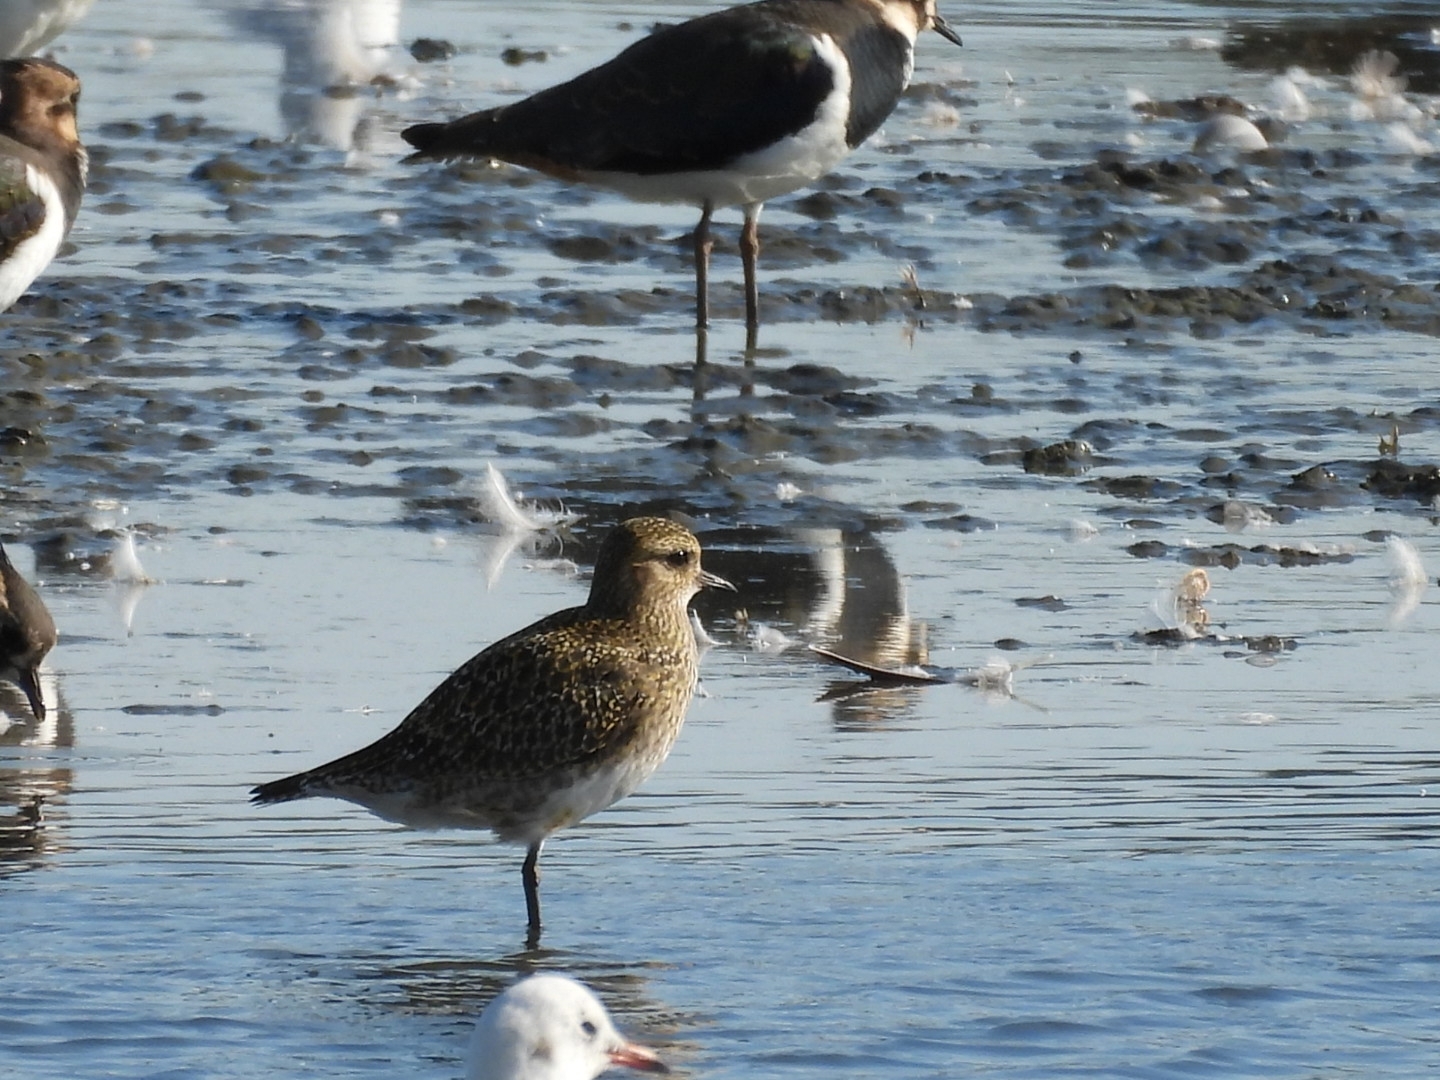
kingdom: Animalia
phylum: Chordata
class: Aves
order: Charadriiformes
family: Charadriidae
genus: Pluvialis
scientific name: Pluvialis apricaria
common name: European golden plover
